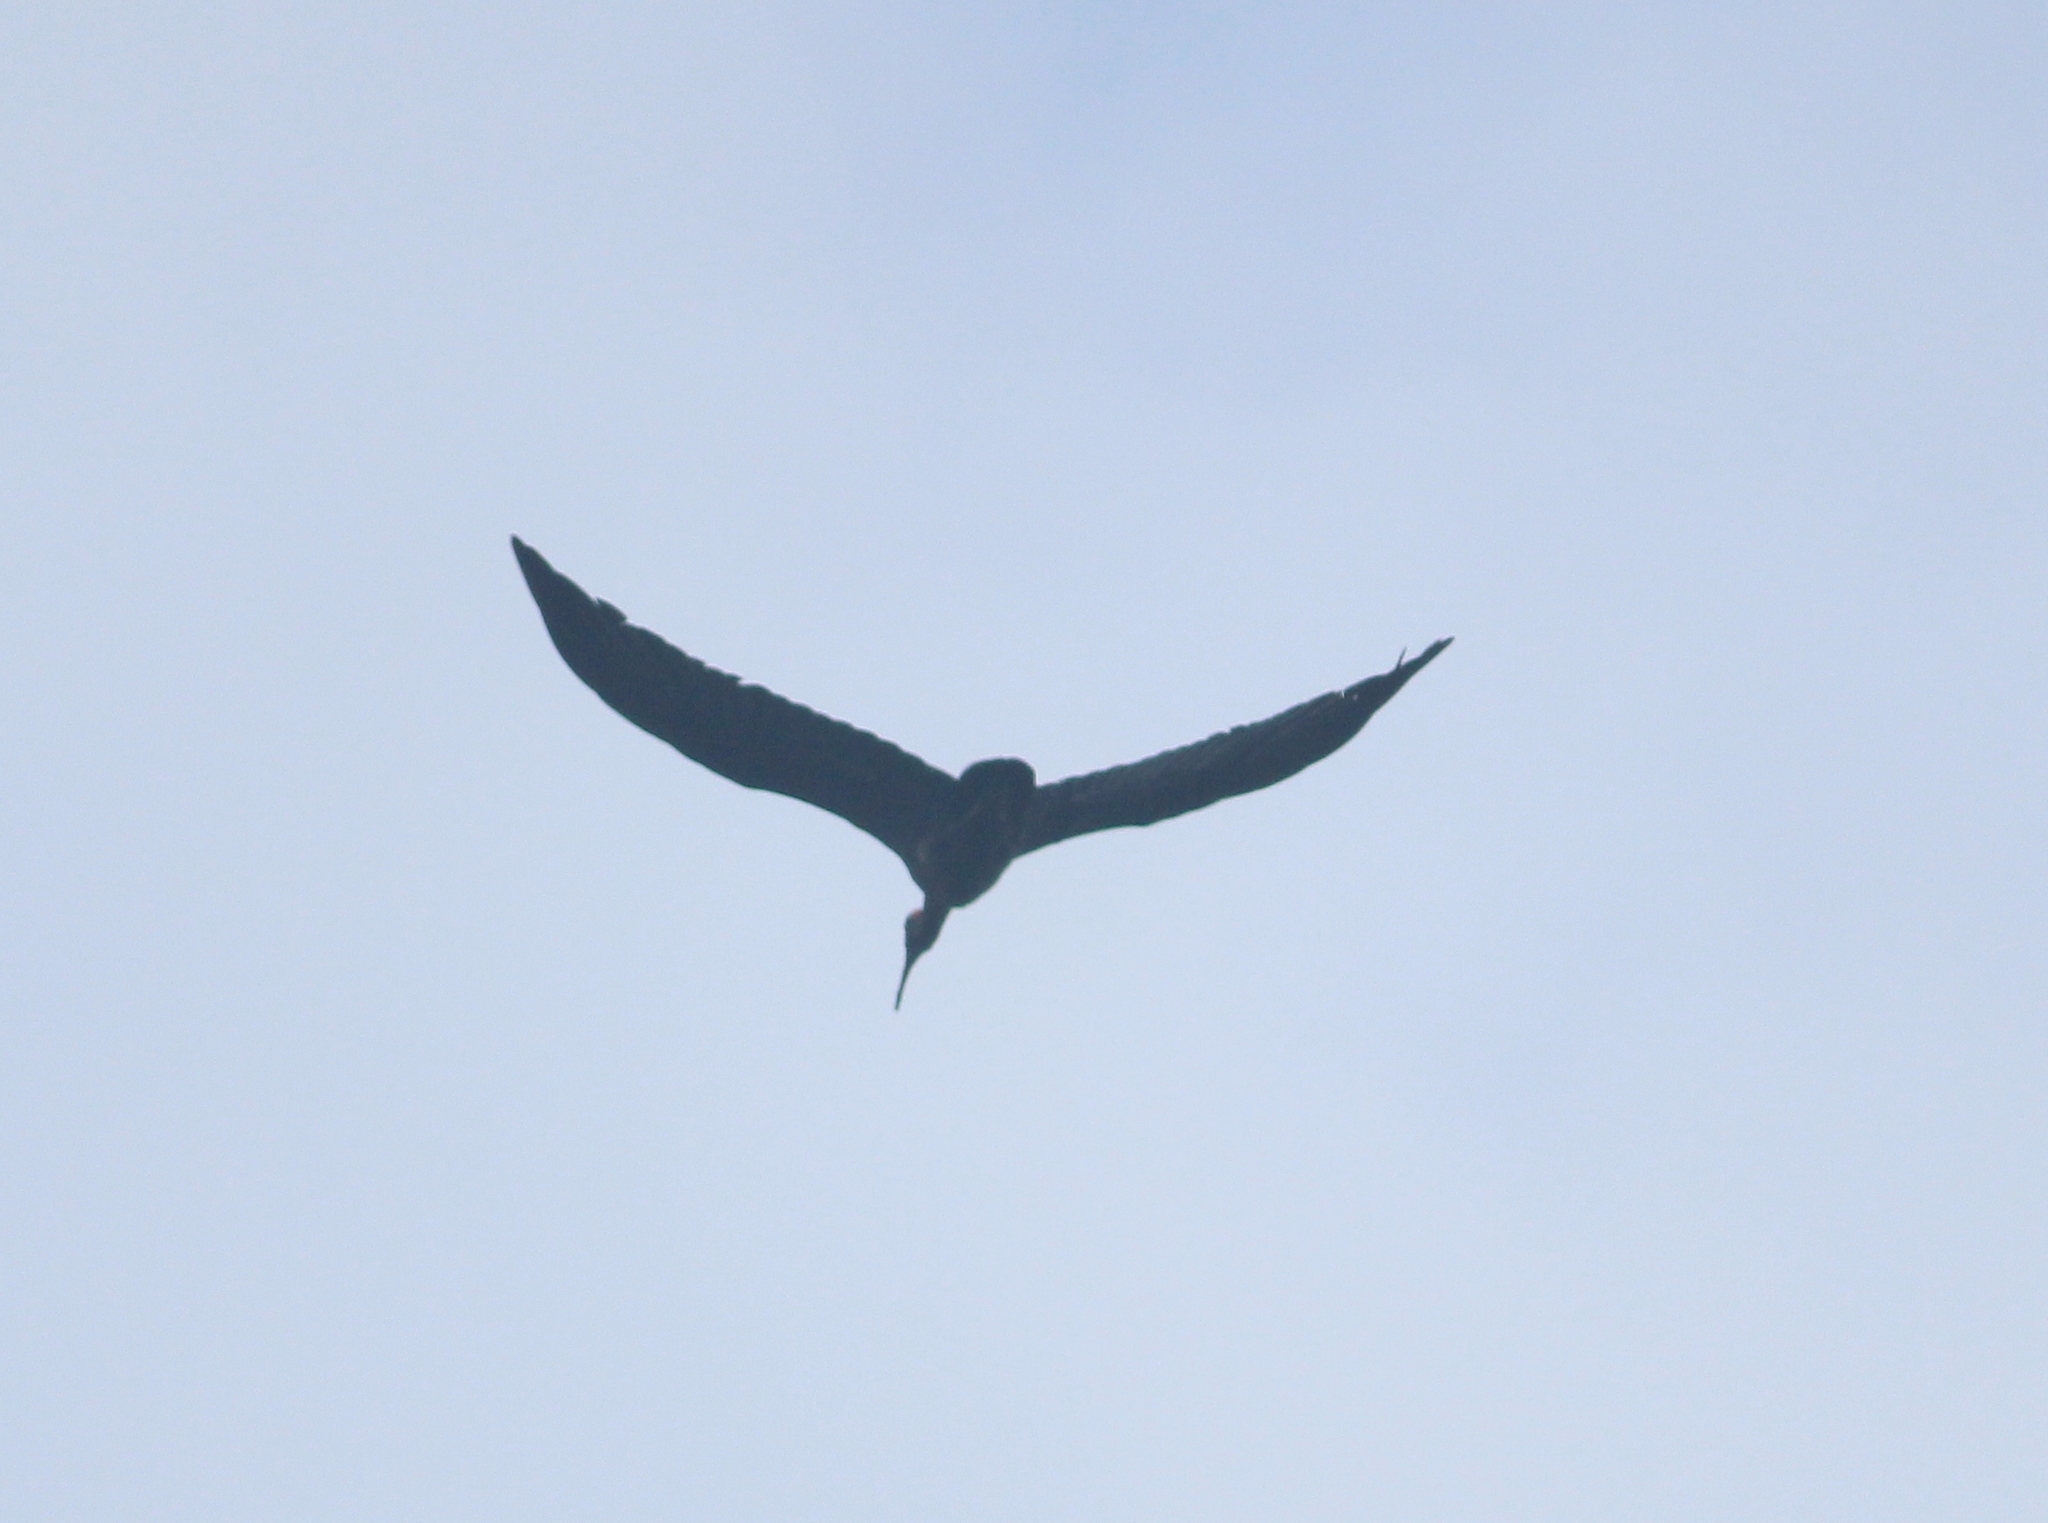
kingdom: Animalia
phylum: Chordata
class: Aves
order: Pelecaniformes
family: Threskiornithidae
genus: Pseudibis
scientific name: Pseudibis papillosa
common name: Red-naped ibis
